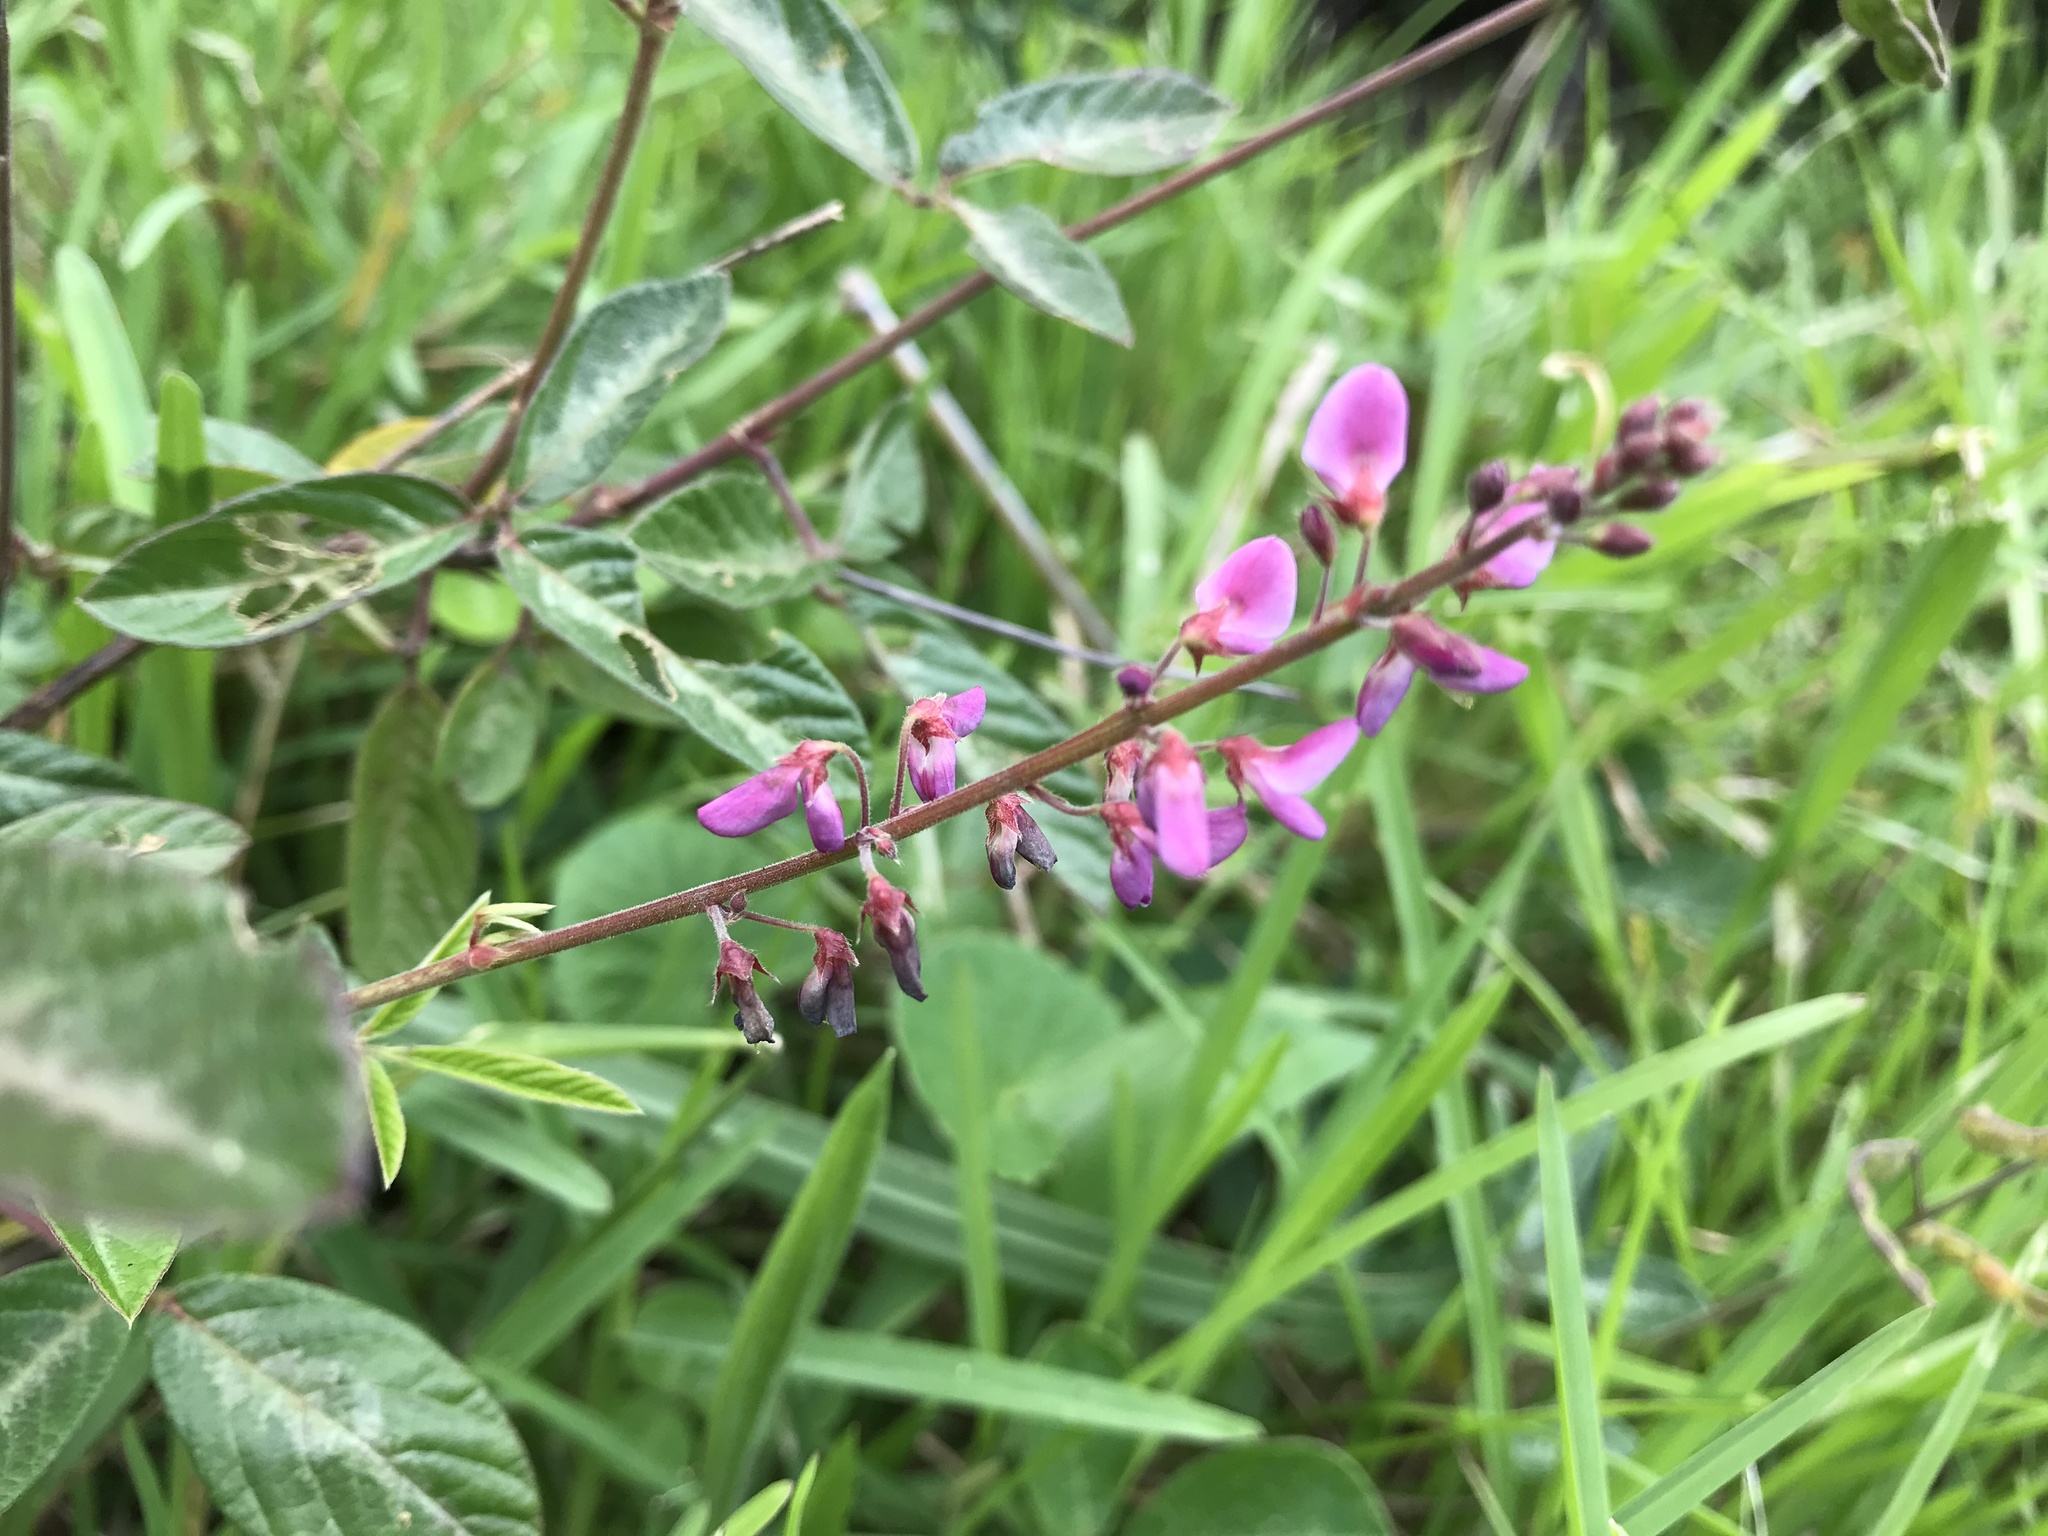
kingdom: Plantae
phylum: Tracheophyta
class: Magnoliopsida
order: Fabales
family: Fabaceae
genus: Desmodium
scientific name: Desmodium incanum
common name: Tickclover
